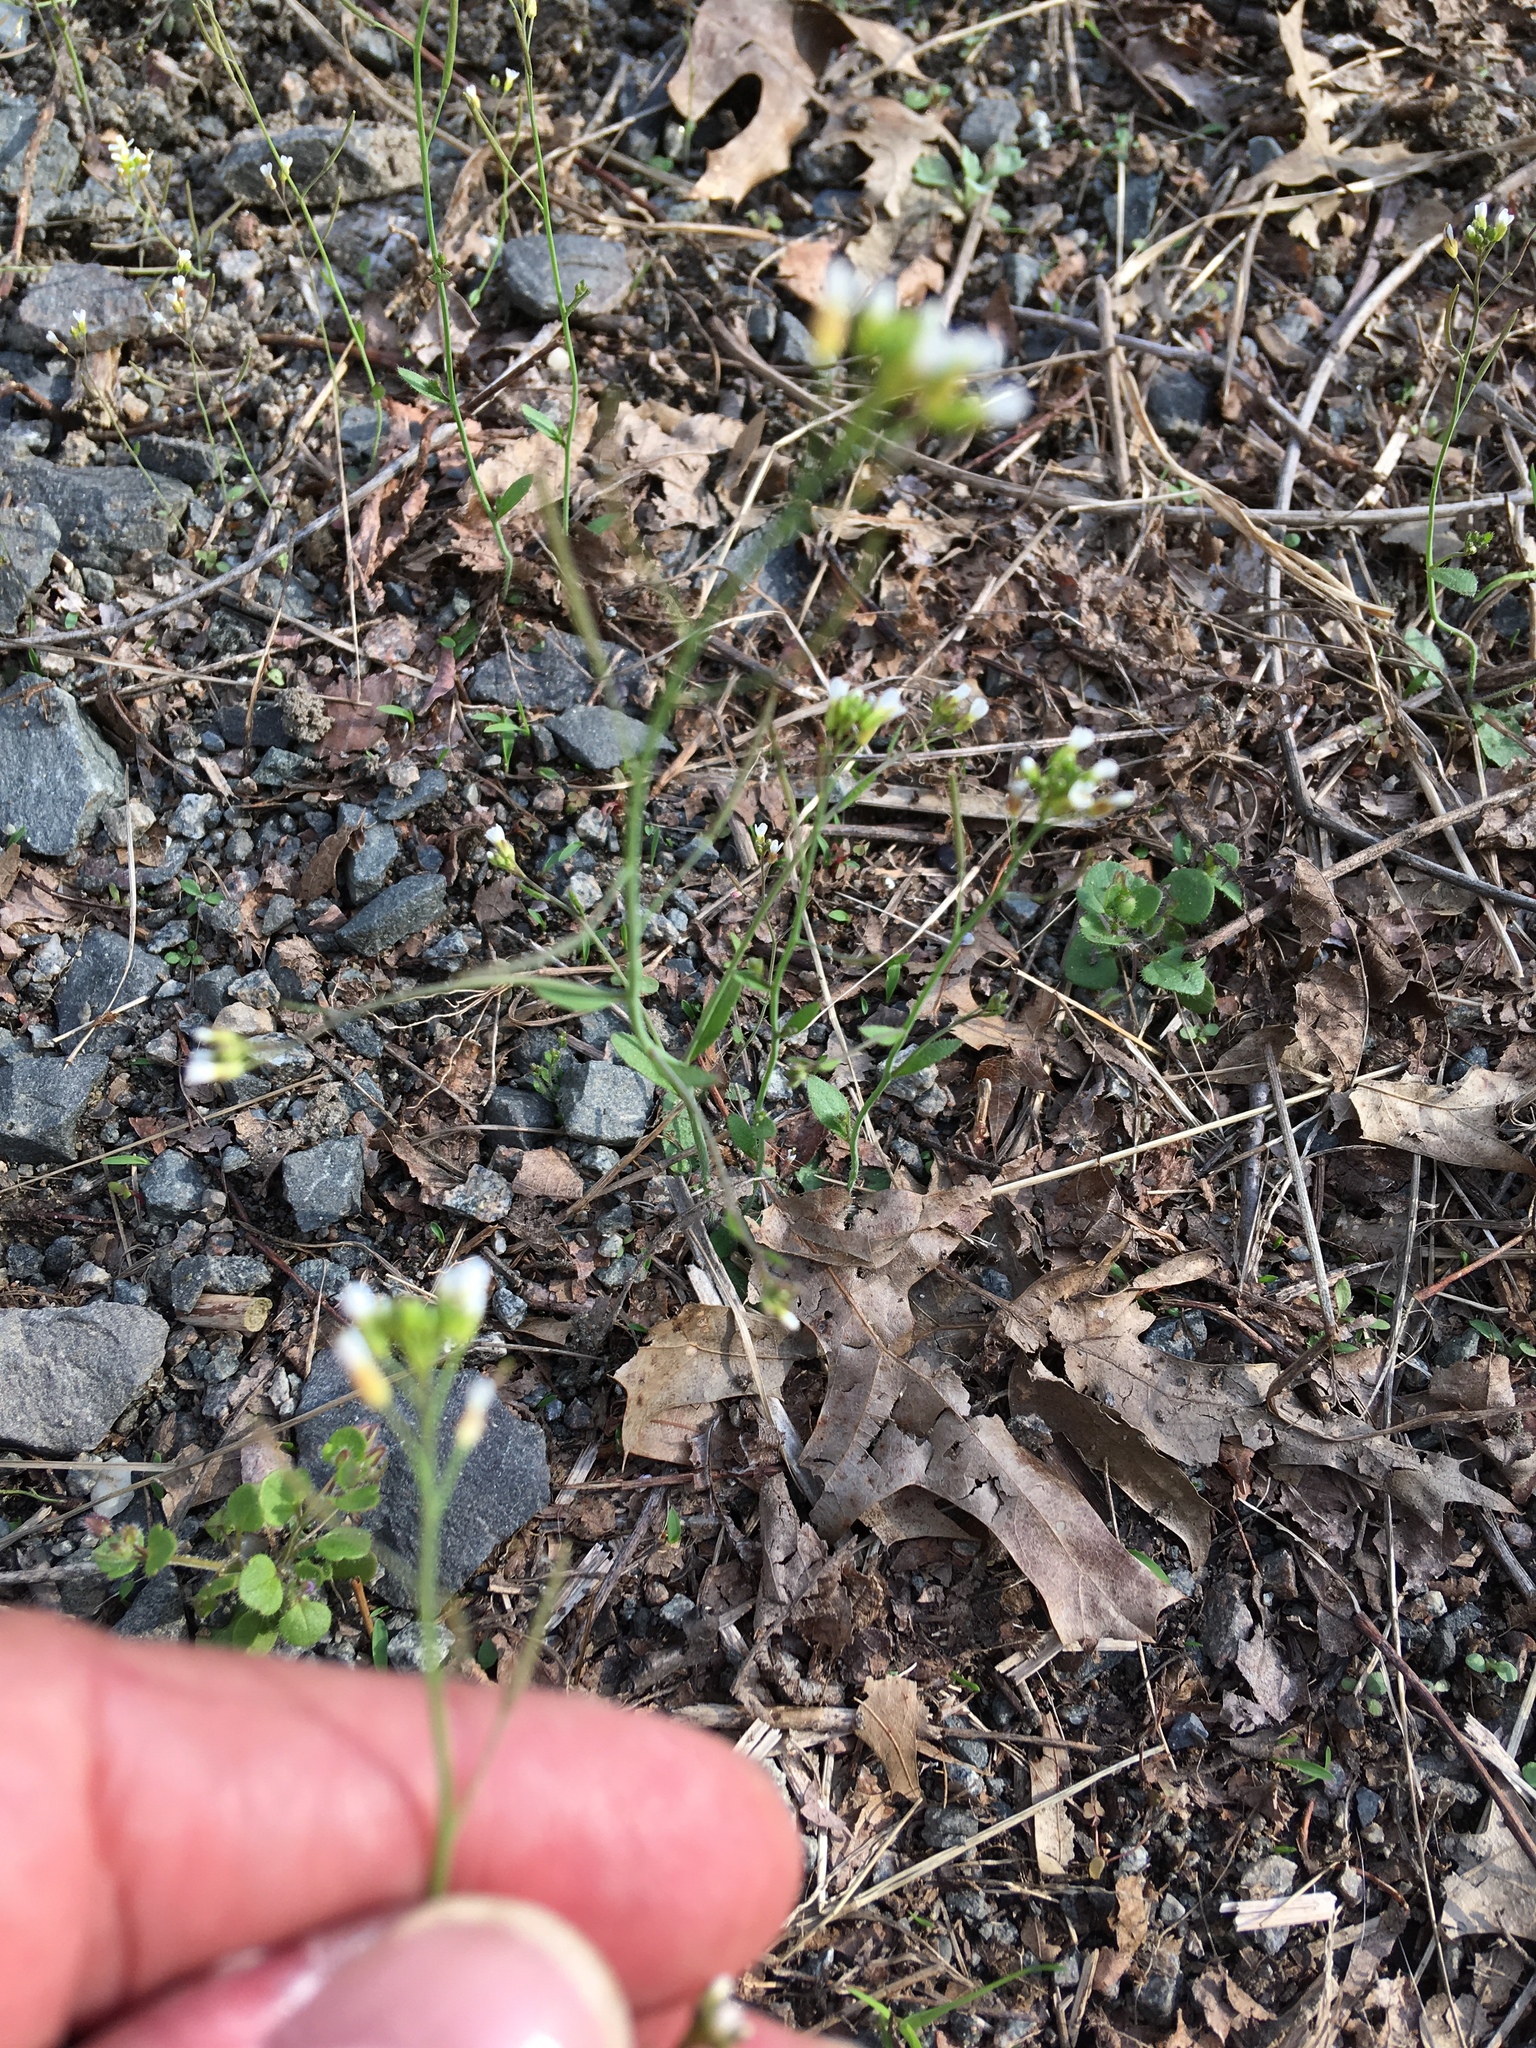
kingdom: Plantae
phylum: Tracheophyta
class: Magnoliopsida
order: Brassicales
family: Brassicaceae
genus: Arabidopsis
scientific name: Arabidopsis thaliana
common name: Thale cress
